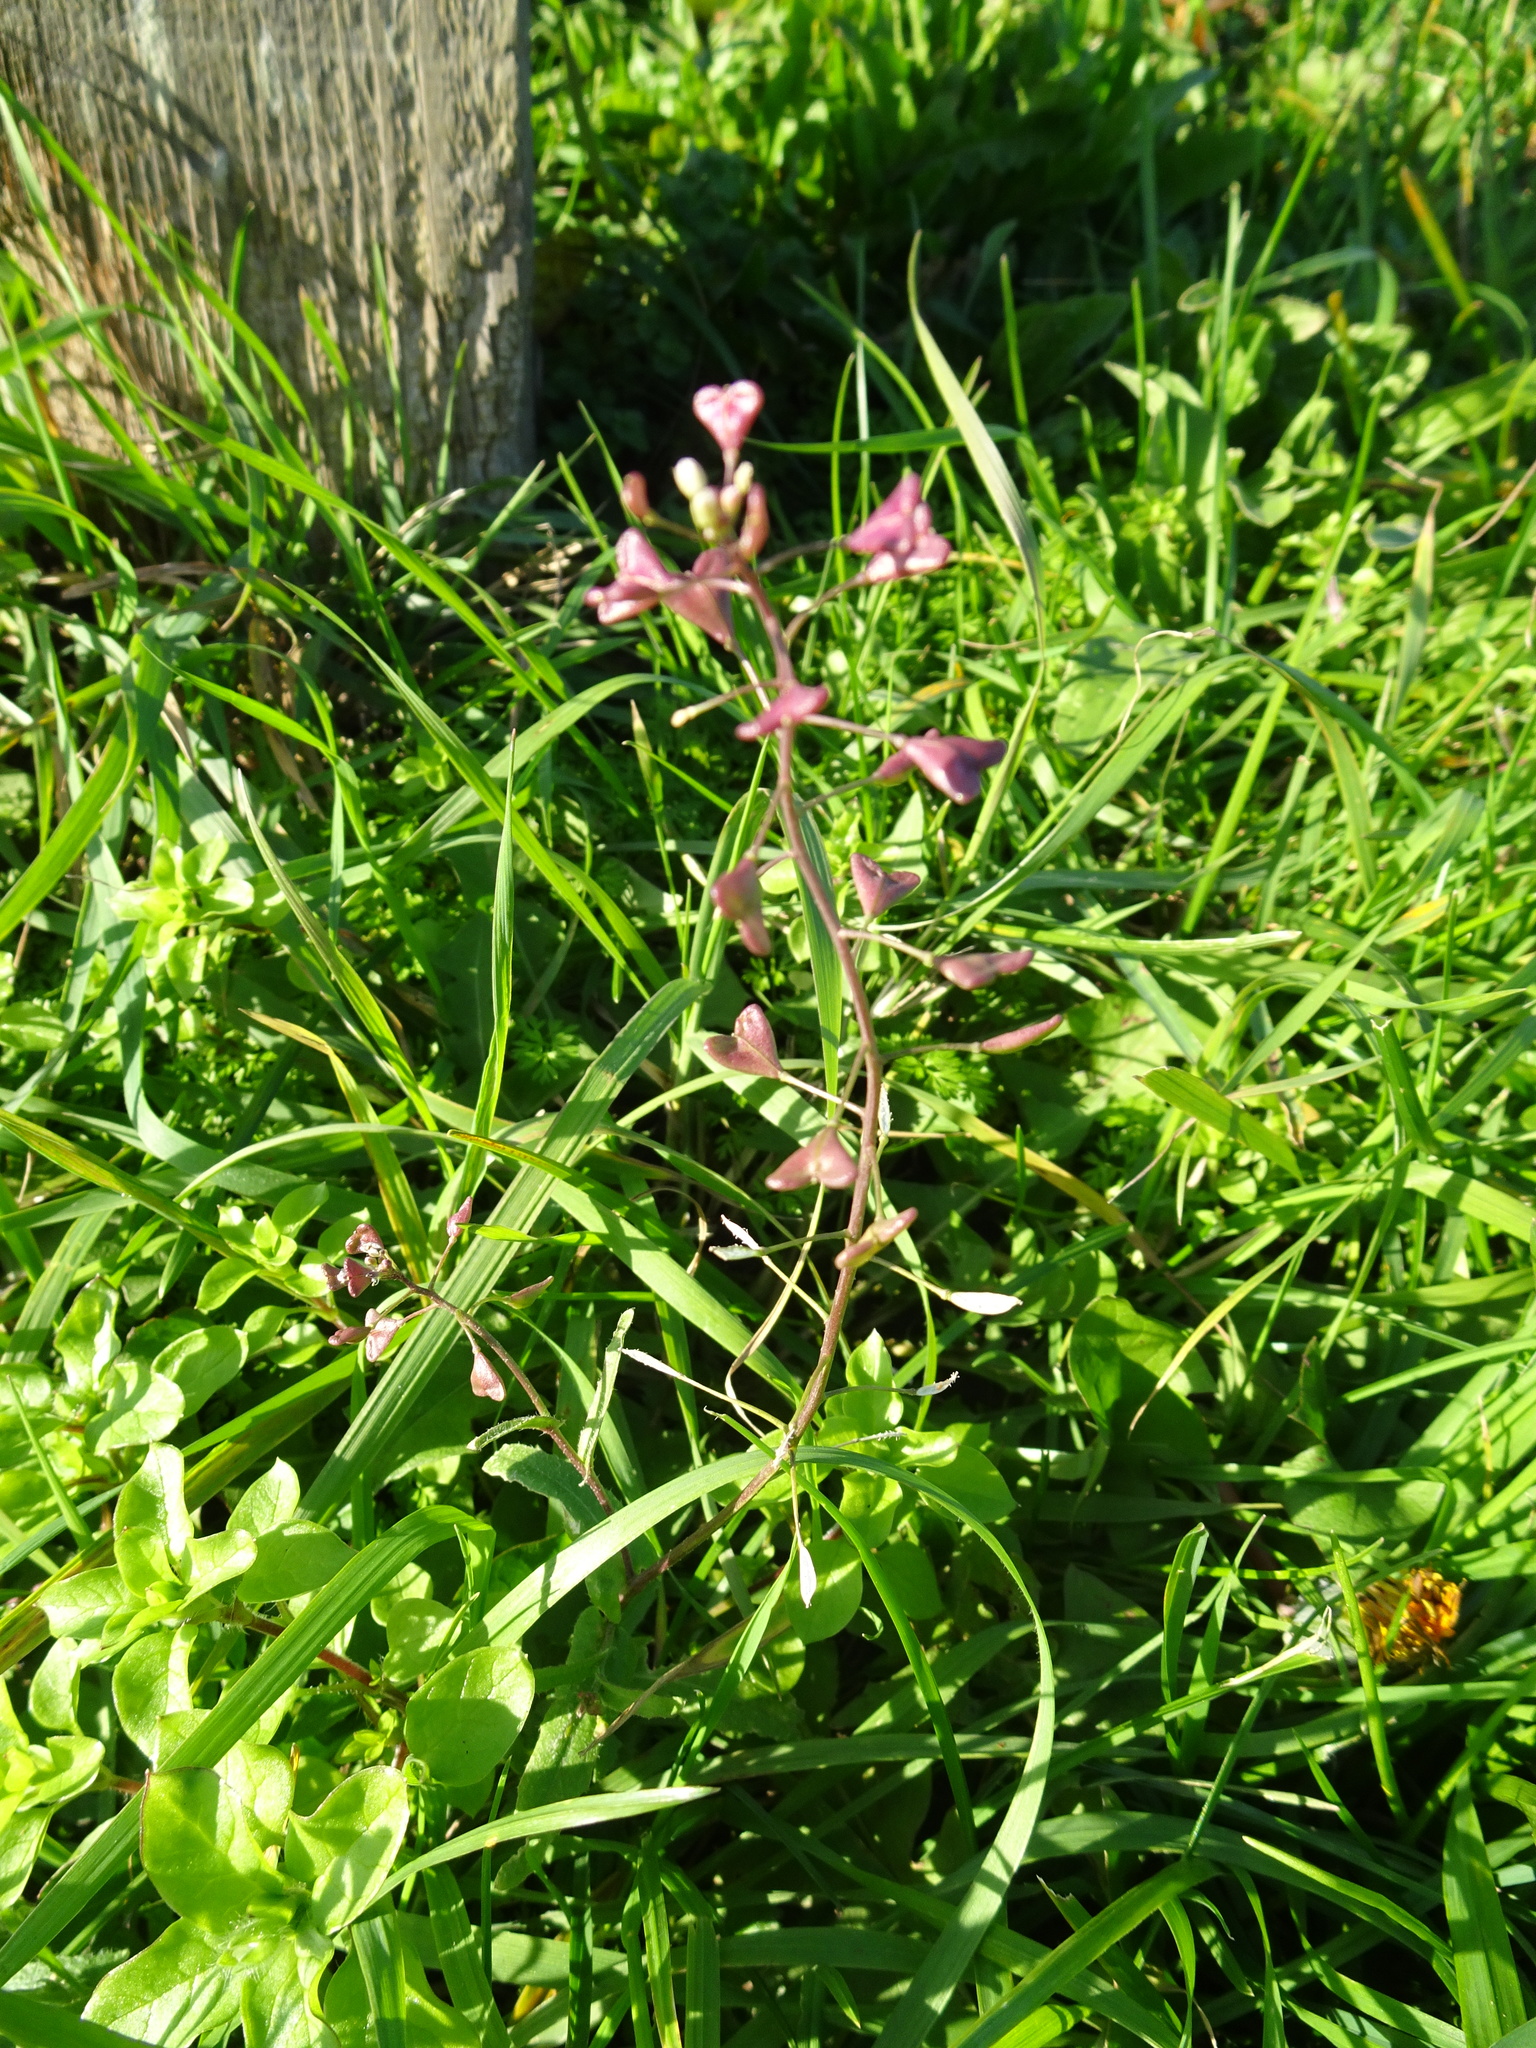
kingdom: Plantae
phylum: Tracheophyta
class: Magnoliopsida
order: Brassicales
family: Brassicaceae
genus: Capsella
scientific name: Capsella bursa-pastoris
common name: Shepherd's purse
